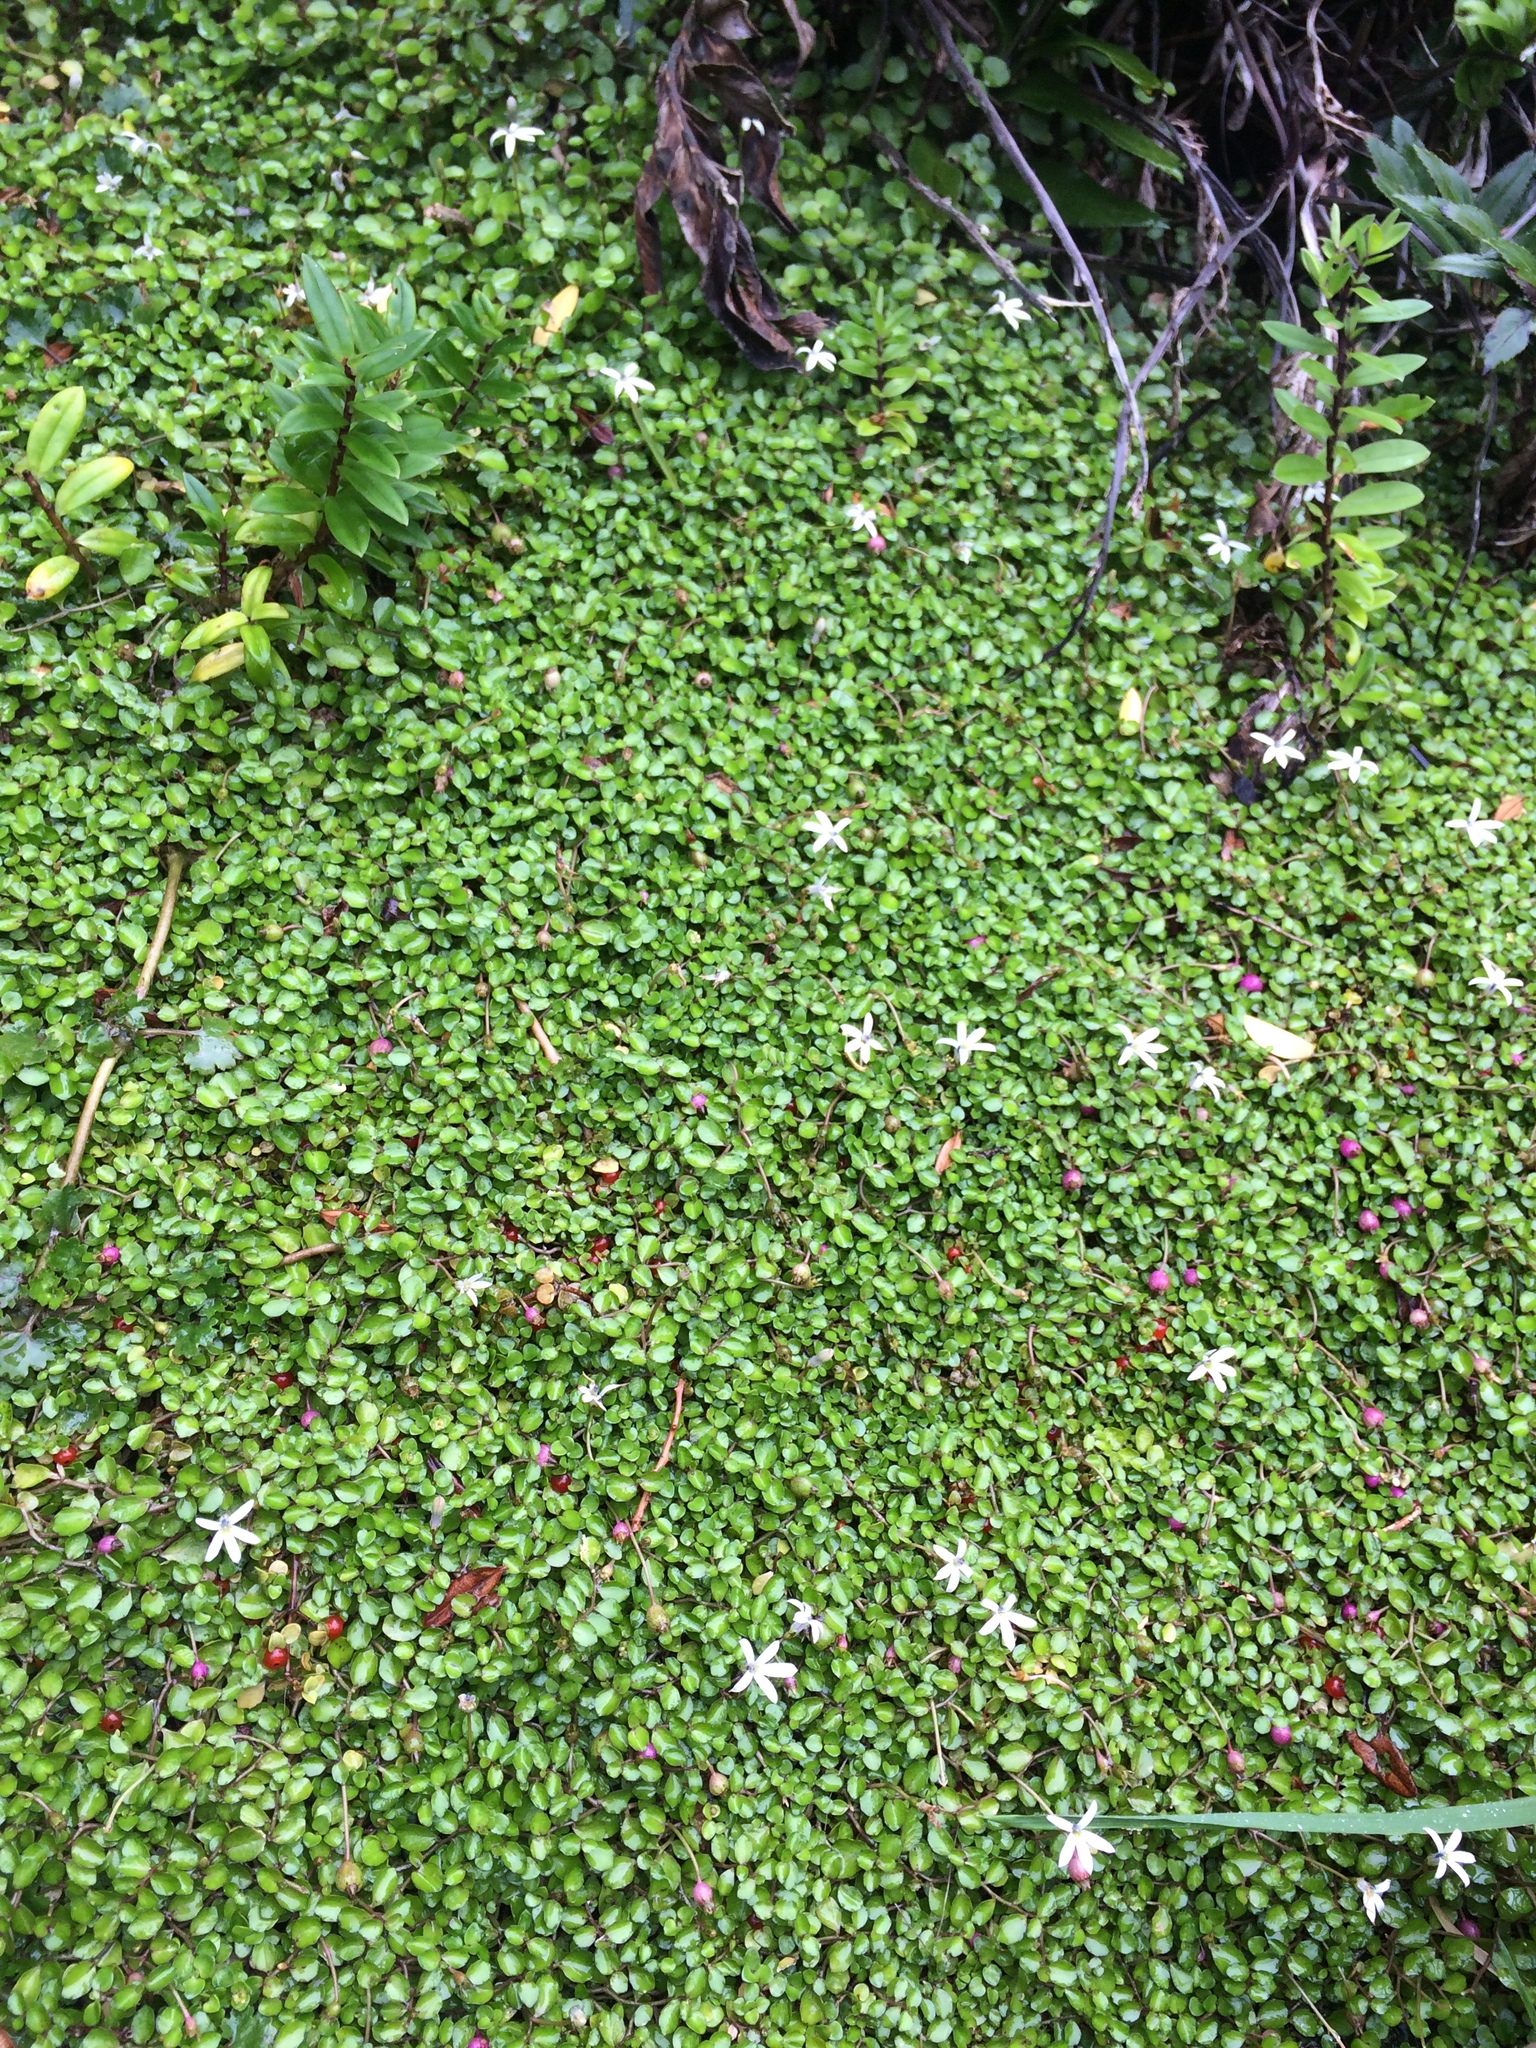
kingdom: Plantae
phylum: Tracheophyta
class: Magnoliopsida
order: Asterales
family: Campanulaceae
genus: Lobelia
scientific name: Lobelia angulata
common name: Lawn lobelia
